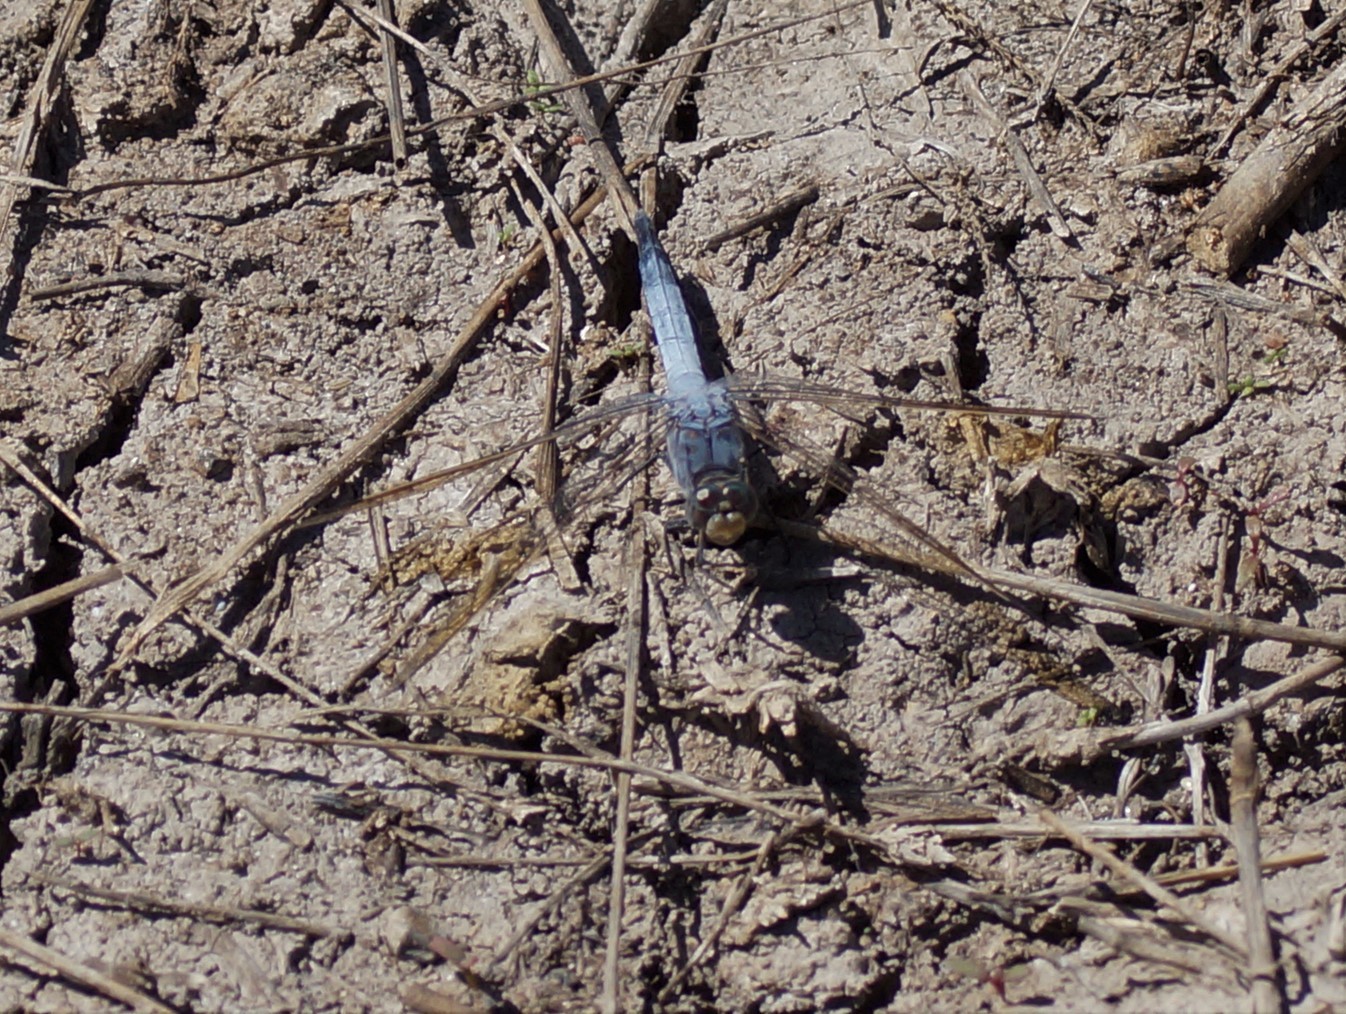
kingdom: Animalia
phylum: Arthropoda
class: Insecta
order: Odonata
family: Libellulidae
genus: Orthetrum
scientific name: Orthetrum caledonicum
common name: Blue skimmer
